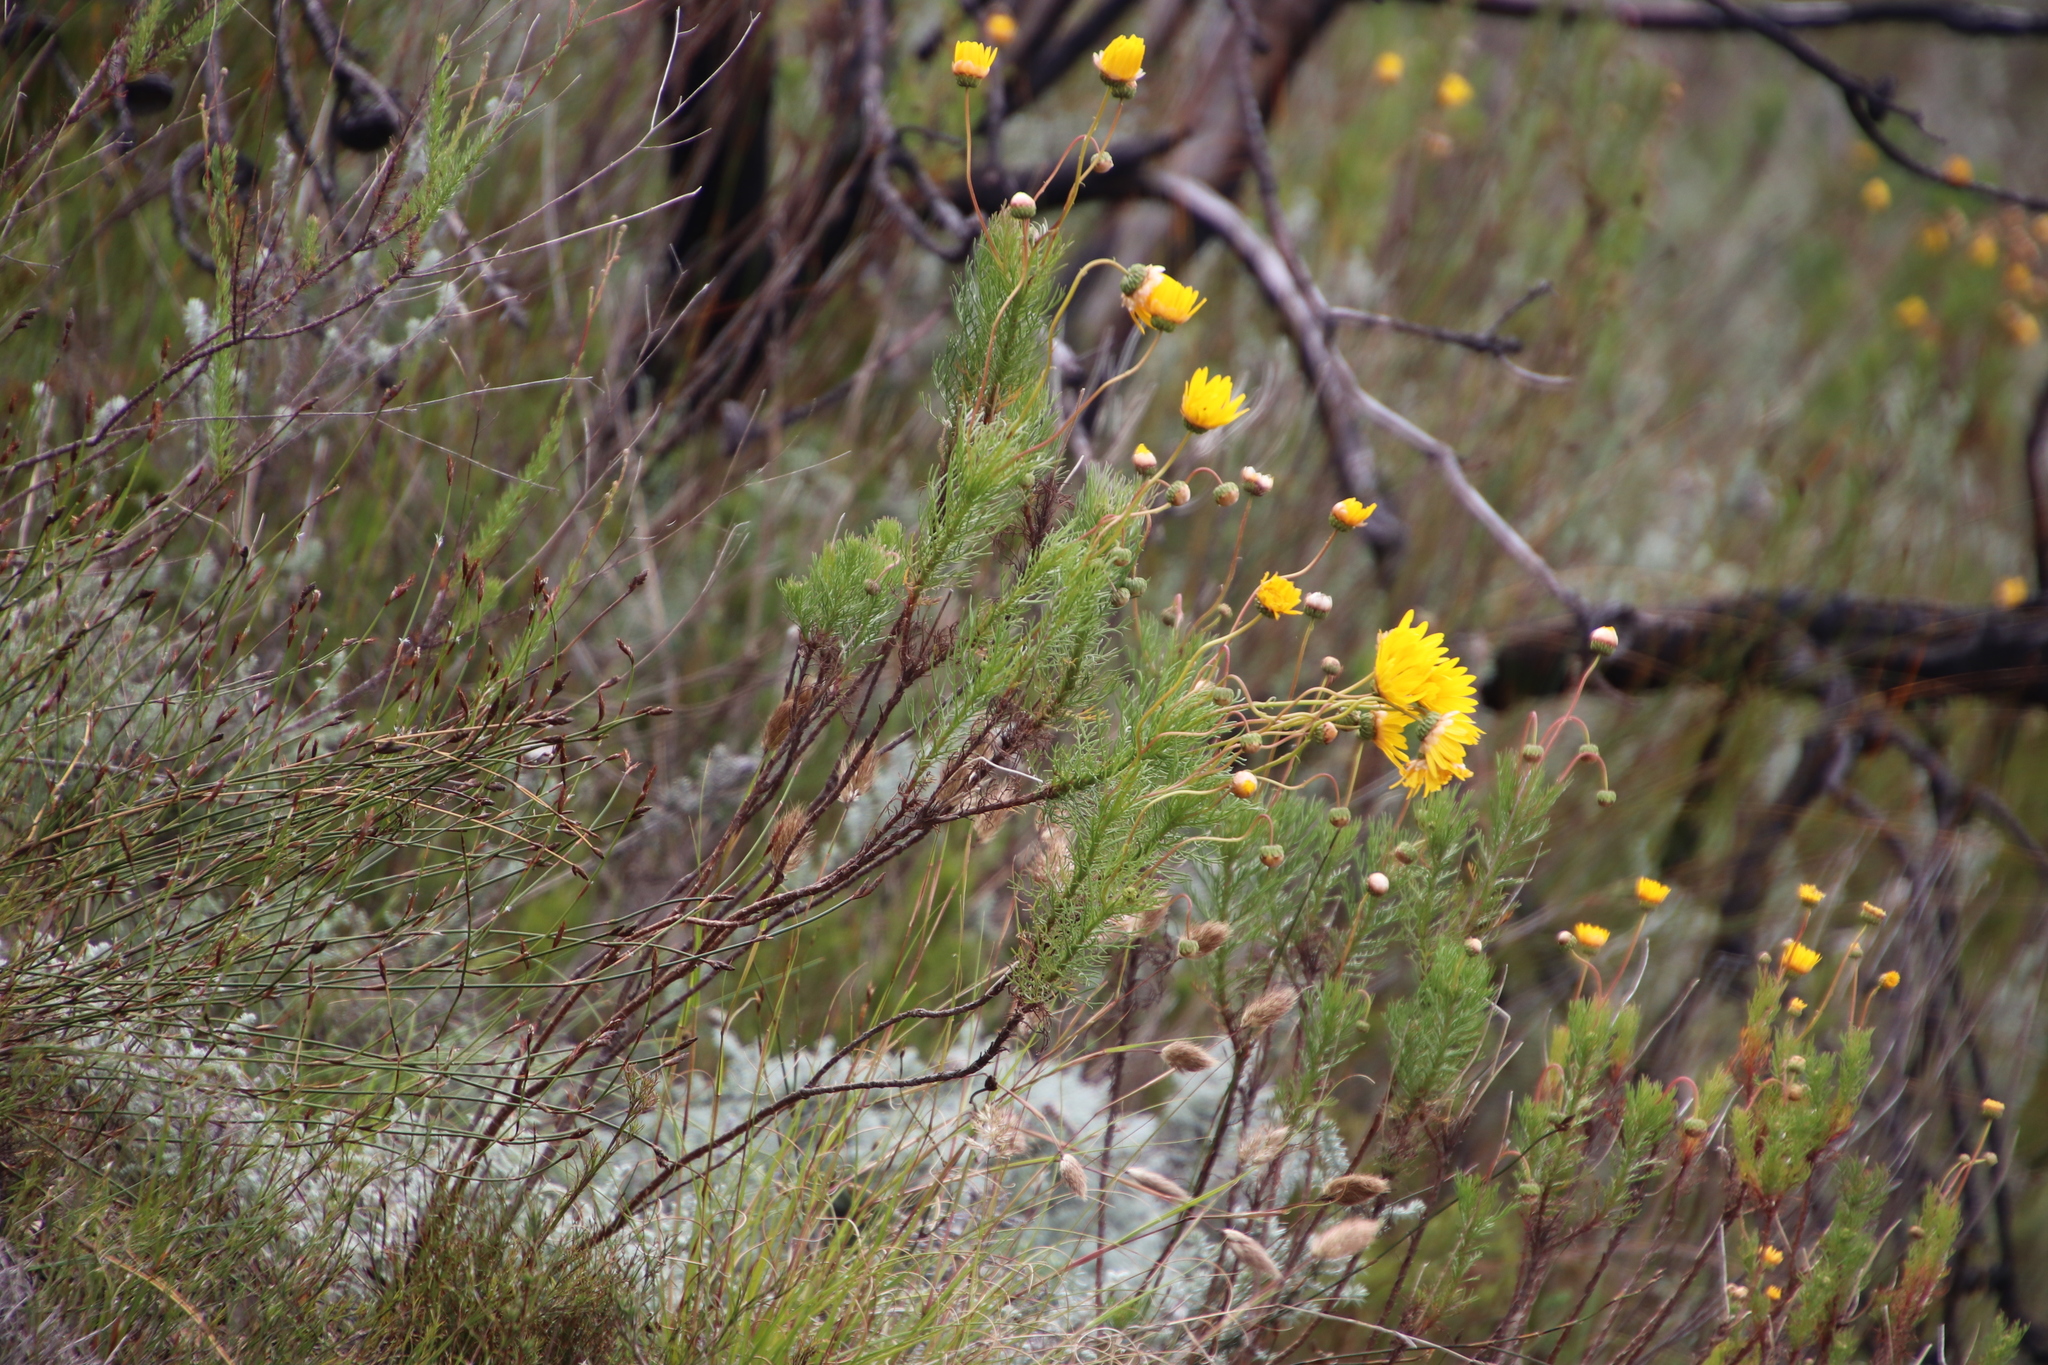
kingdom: Plantae
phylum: Tracheophyta
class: Magnoliopsida
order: Asterales
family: Asteraceae
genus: Euryops
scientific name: Euryops abrotanifolius
